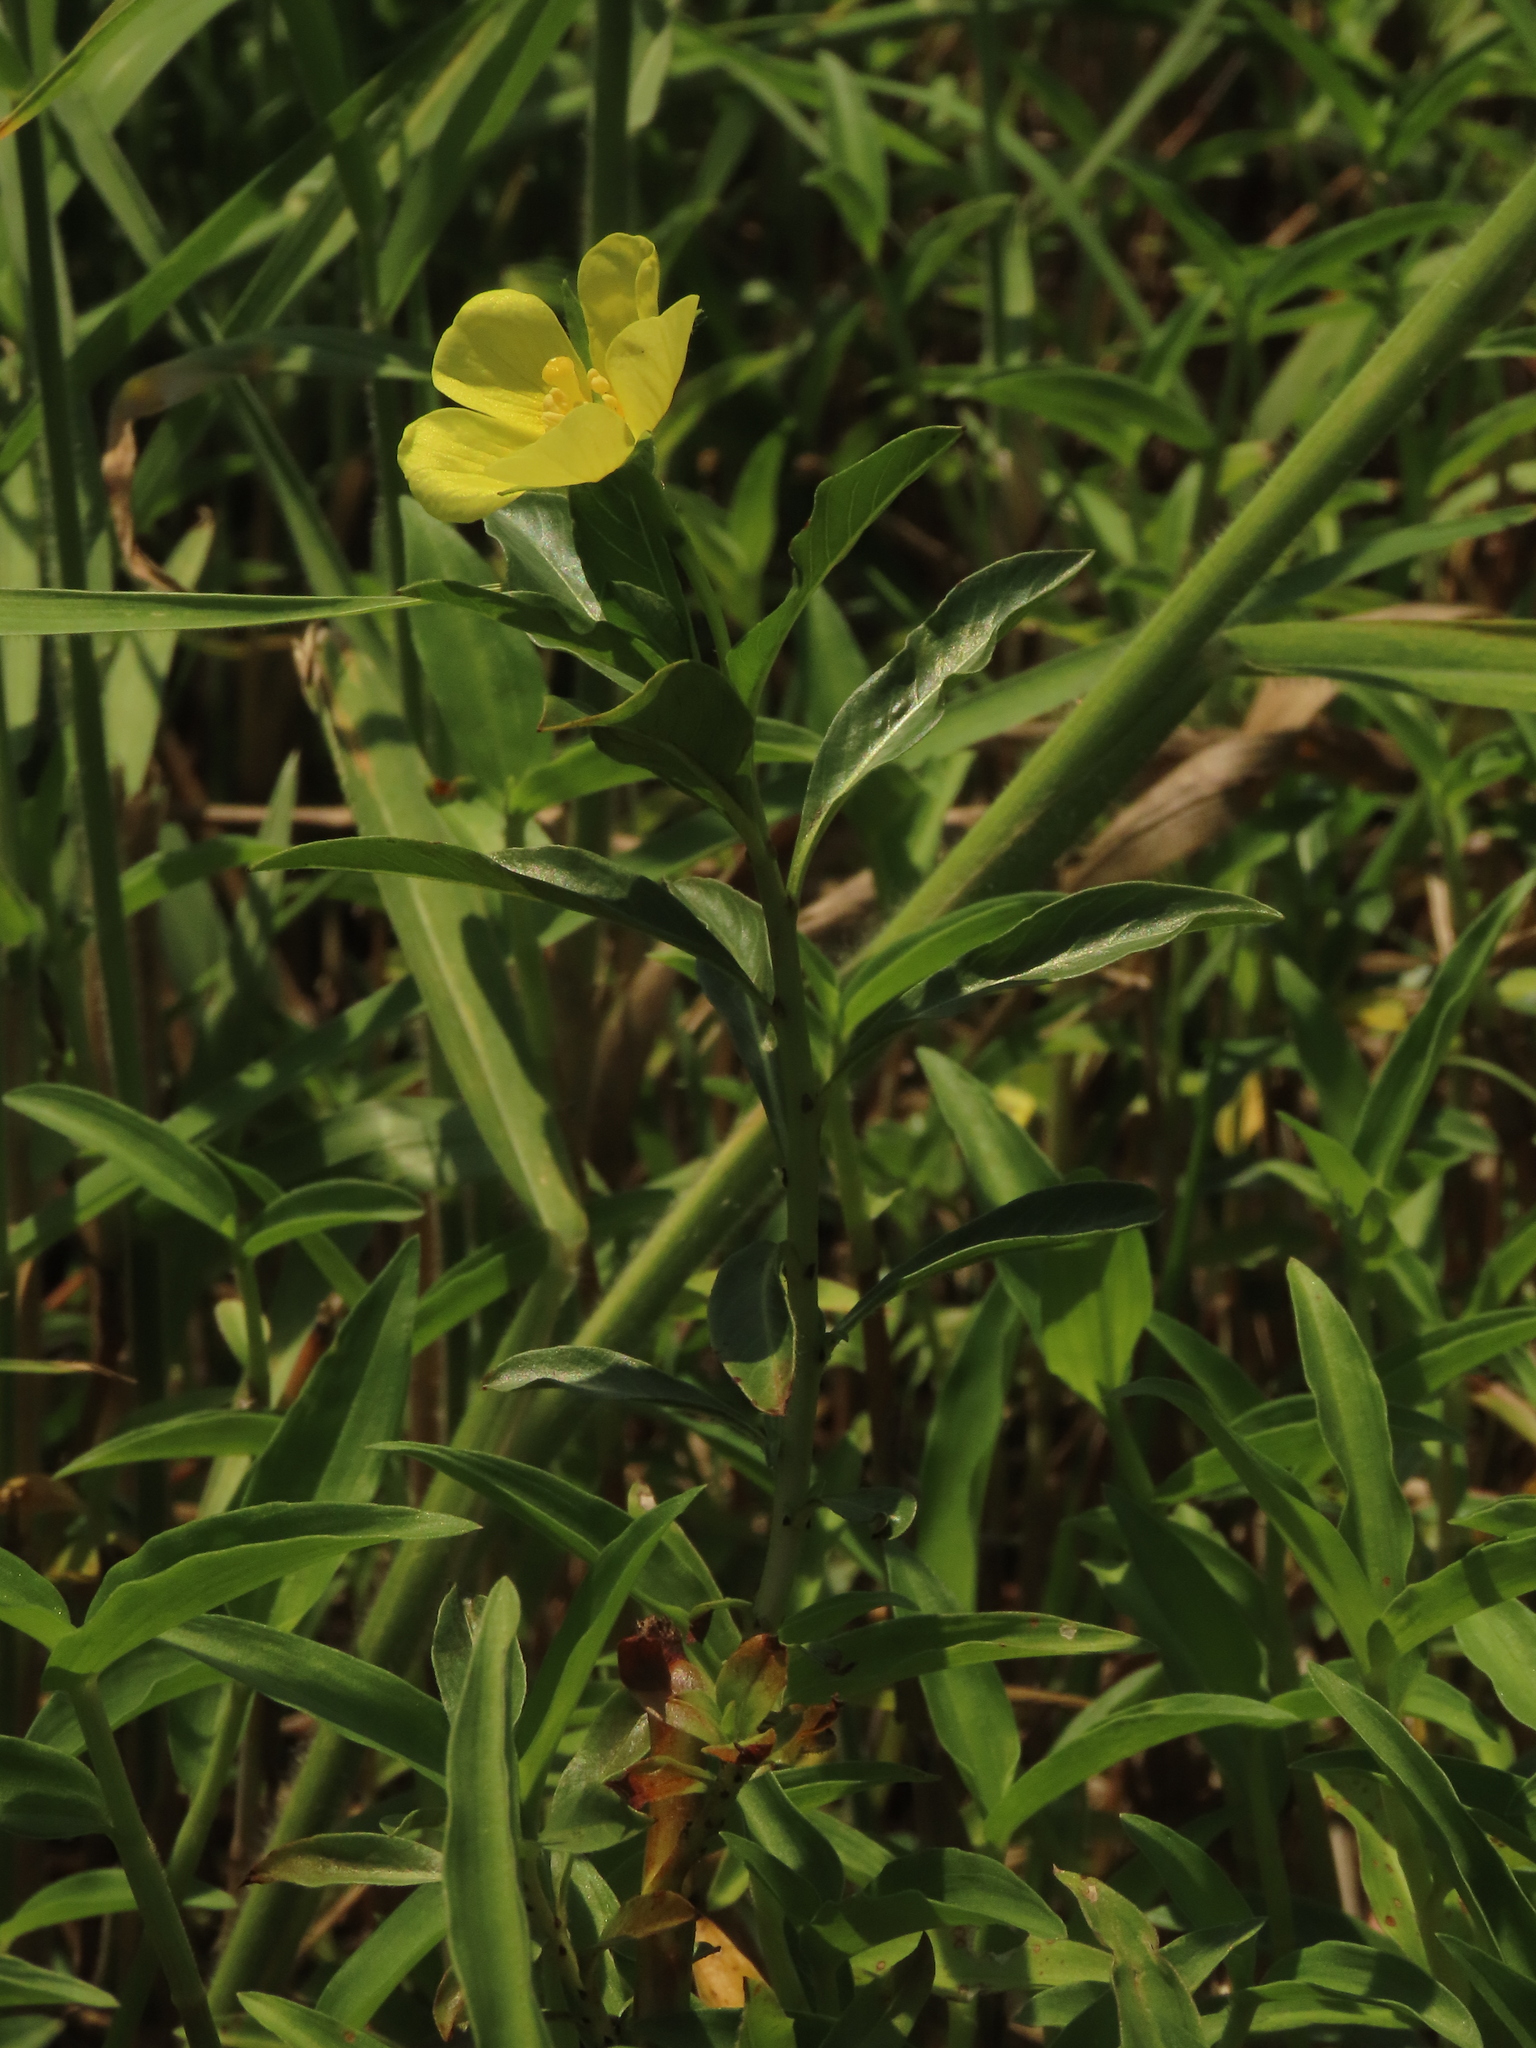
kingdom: Plantae
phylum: Tracheophyta
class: Magnoliopsida
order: Myrtales
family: Onagraceae
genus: Ludwigia
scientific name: Ludwigia taiwanensis
